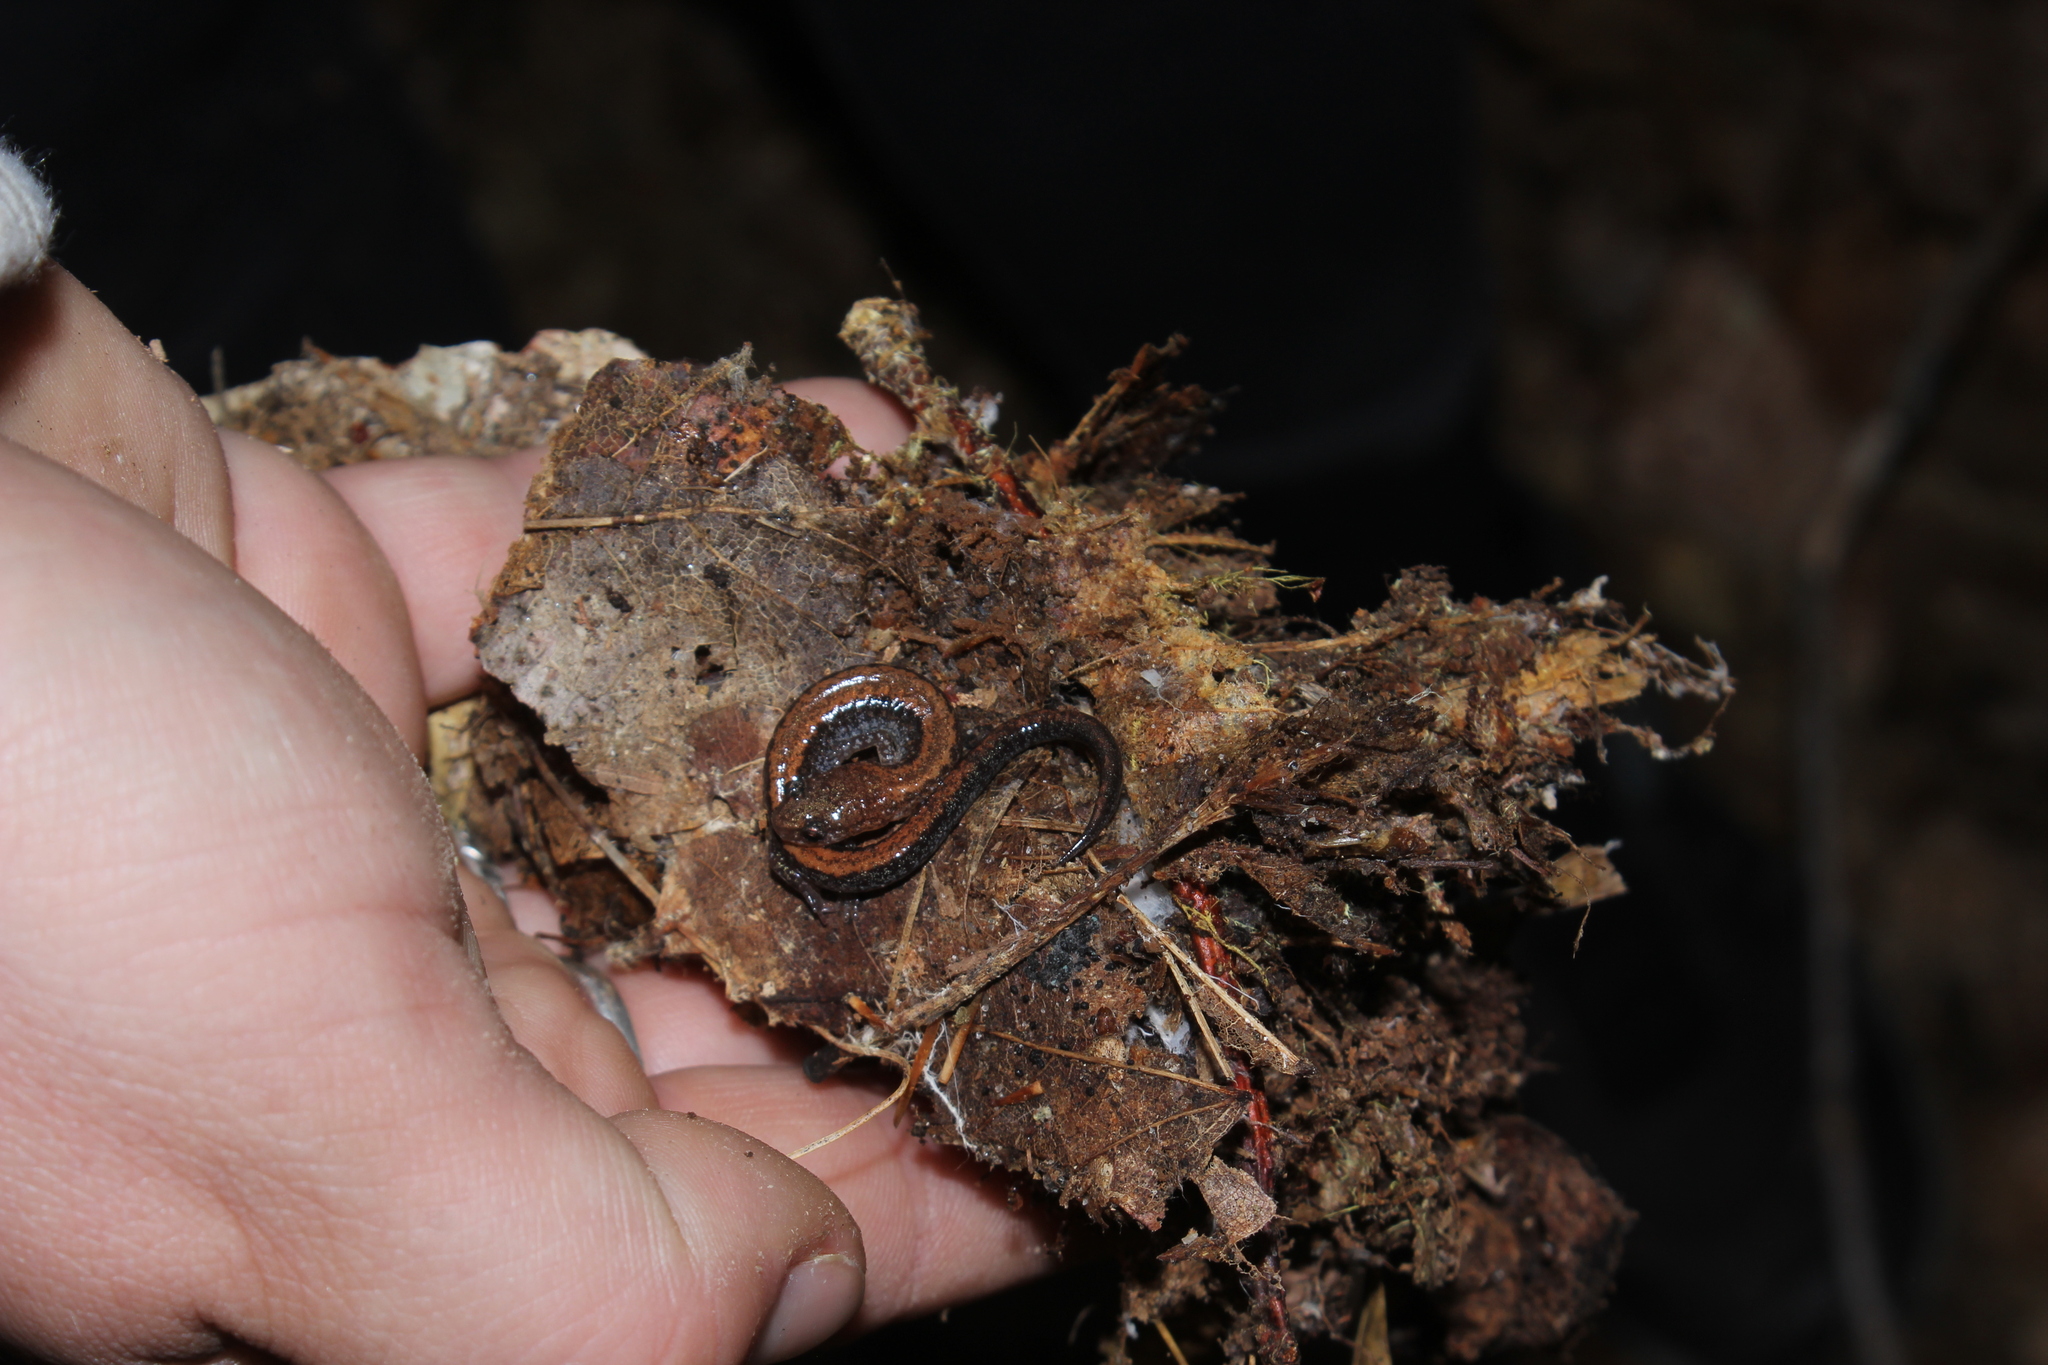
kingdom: Animalia
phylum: Chordata
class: Amphibia
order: Caudata
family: Plethodontidae
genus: Plethodon
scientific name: Plethodon cinereus
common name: Redback salamander
